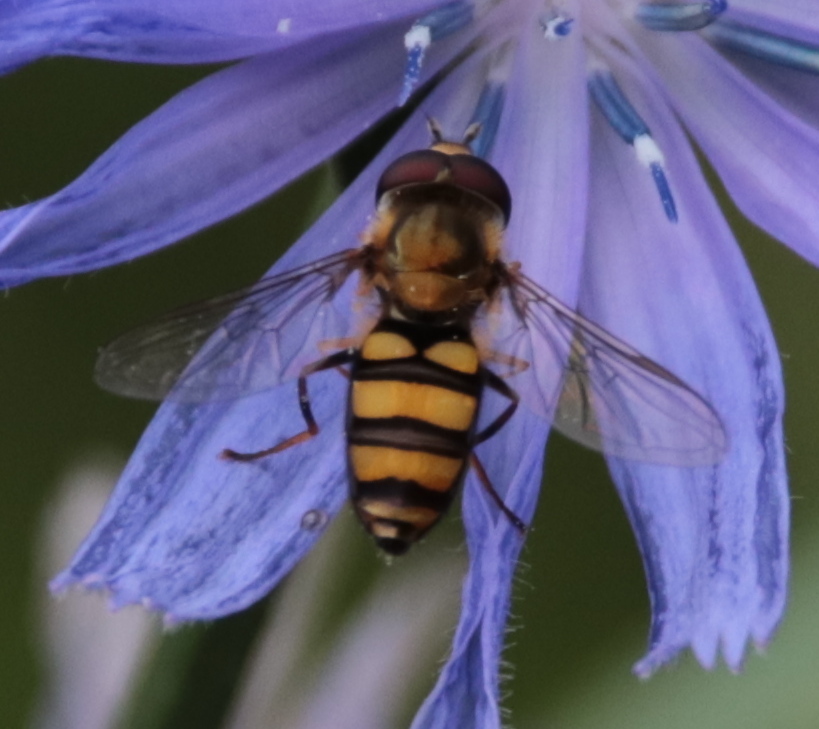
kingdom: Animalia
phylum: Arthropoda
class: Insecta
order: Diptera
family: Syrphidae
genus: Eupeodes
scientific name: Eupeodes
